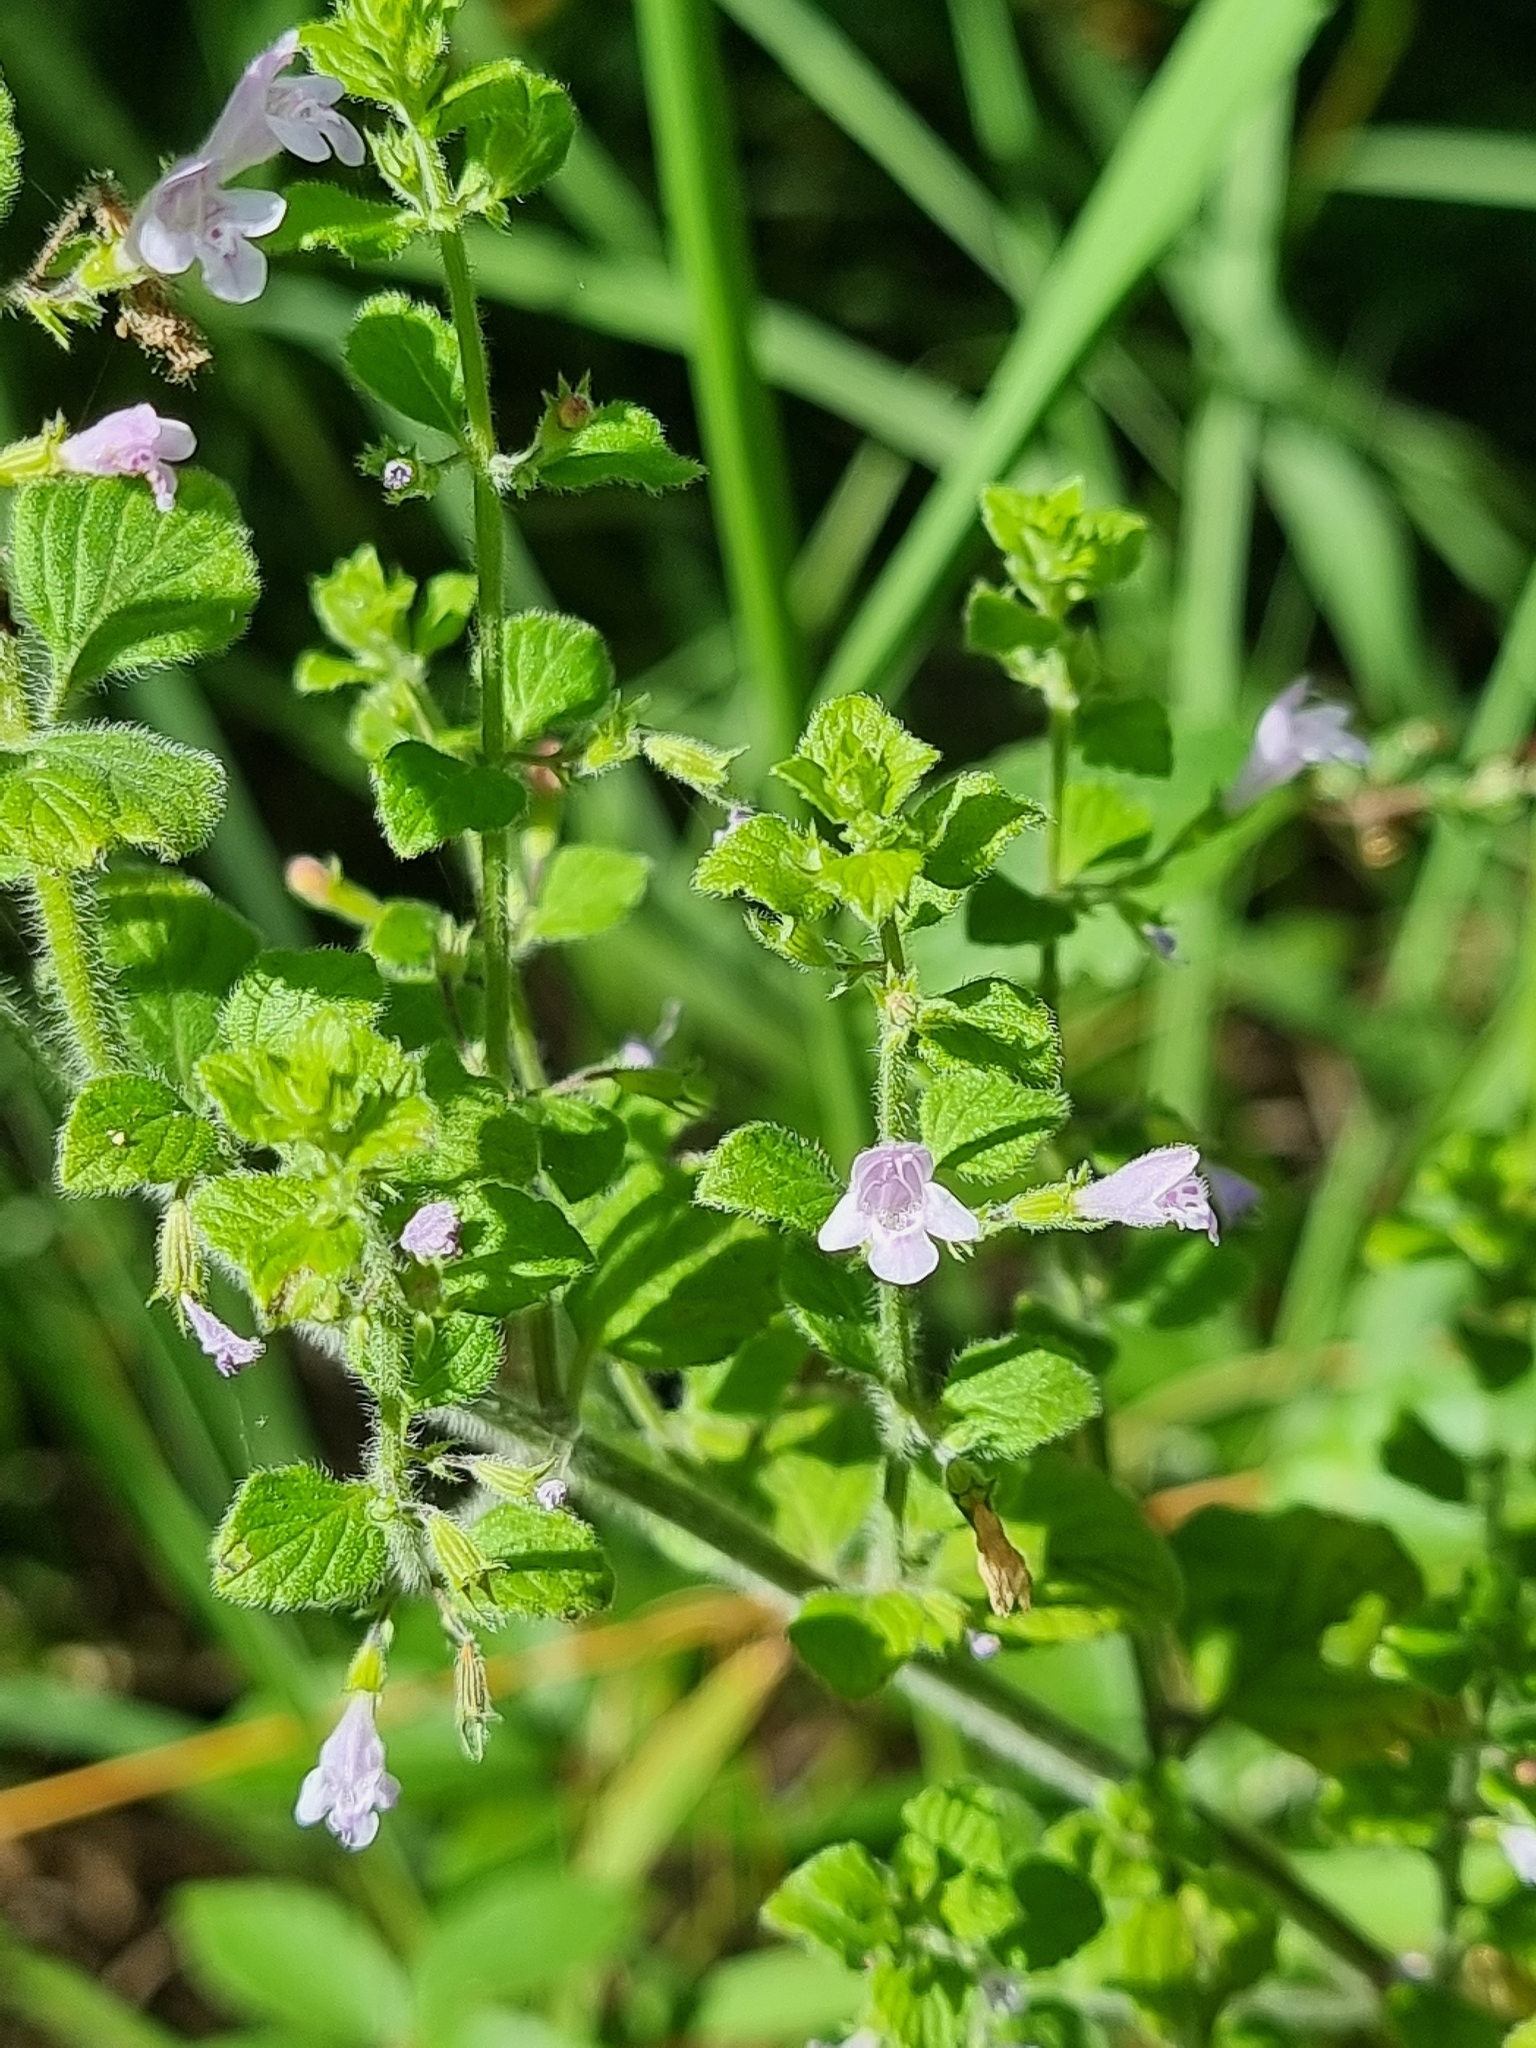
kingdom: Plantae
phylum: Tracheophyta
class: Magnoliopsida
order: Lamiales
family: Lamiaceae
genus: Clinopodium
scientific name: Clinopodium menthifolium
